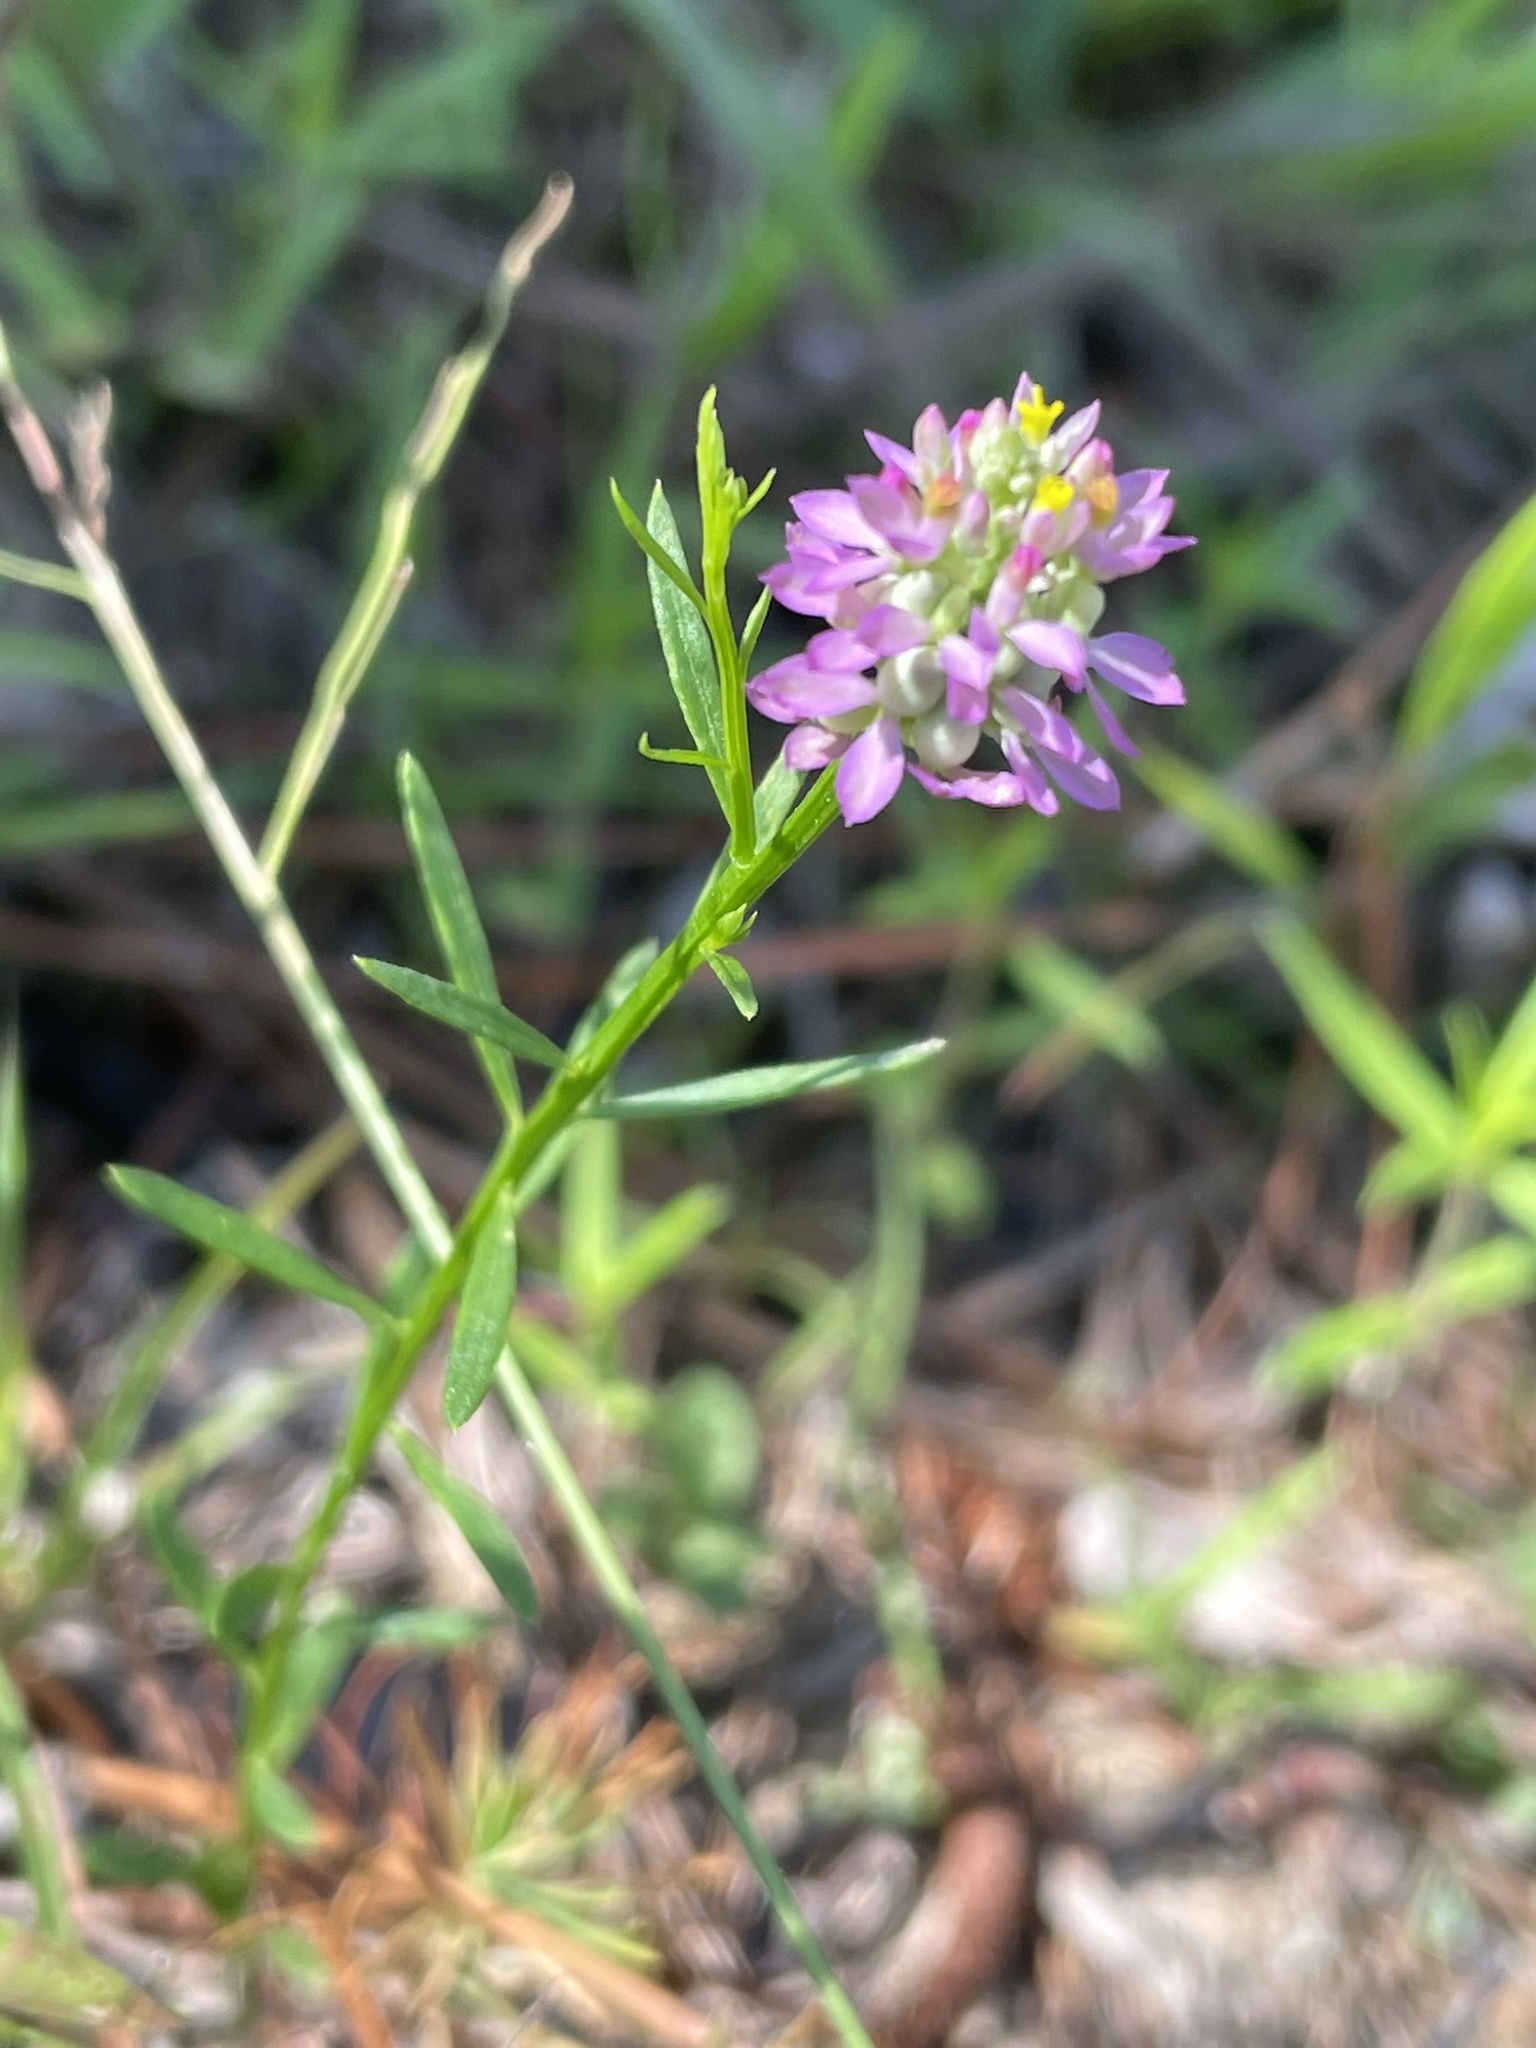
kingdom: Plantae
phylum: Tracheophyta
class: Magnoliopsida
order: Fabales
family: Polygalaceae
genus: Polygala
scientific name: Polygala curtissii
